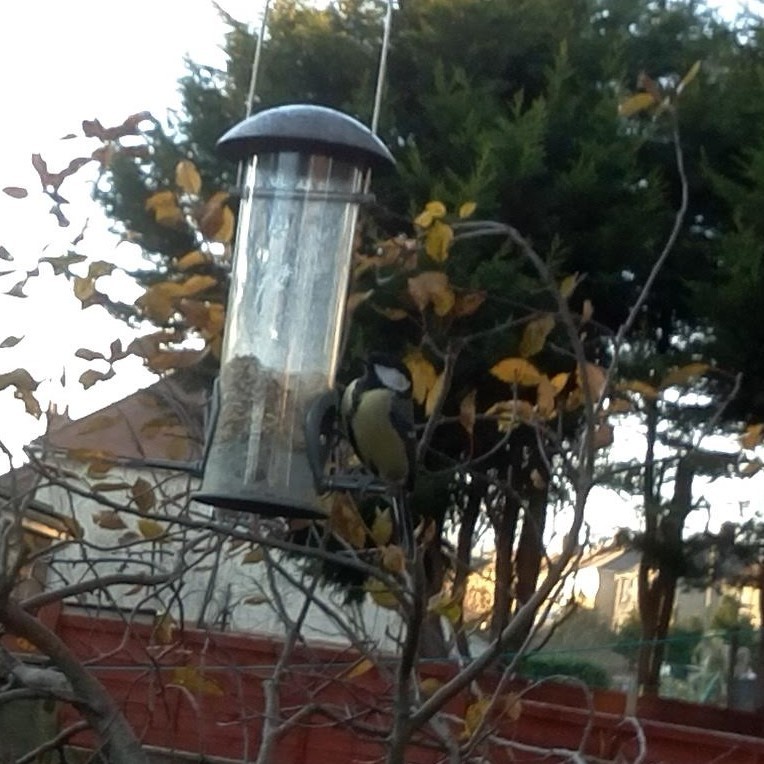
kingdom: Animalia
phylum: Chordata
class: Aves
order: Passeriformes
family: Paridae
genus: Parus
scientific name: Parus major
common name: Great tit
